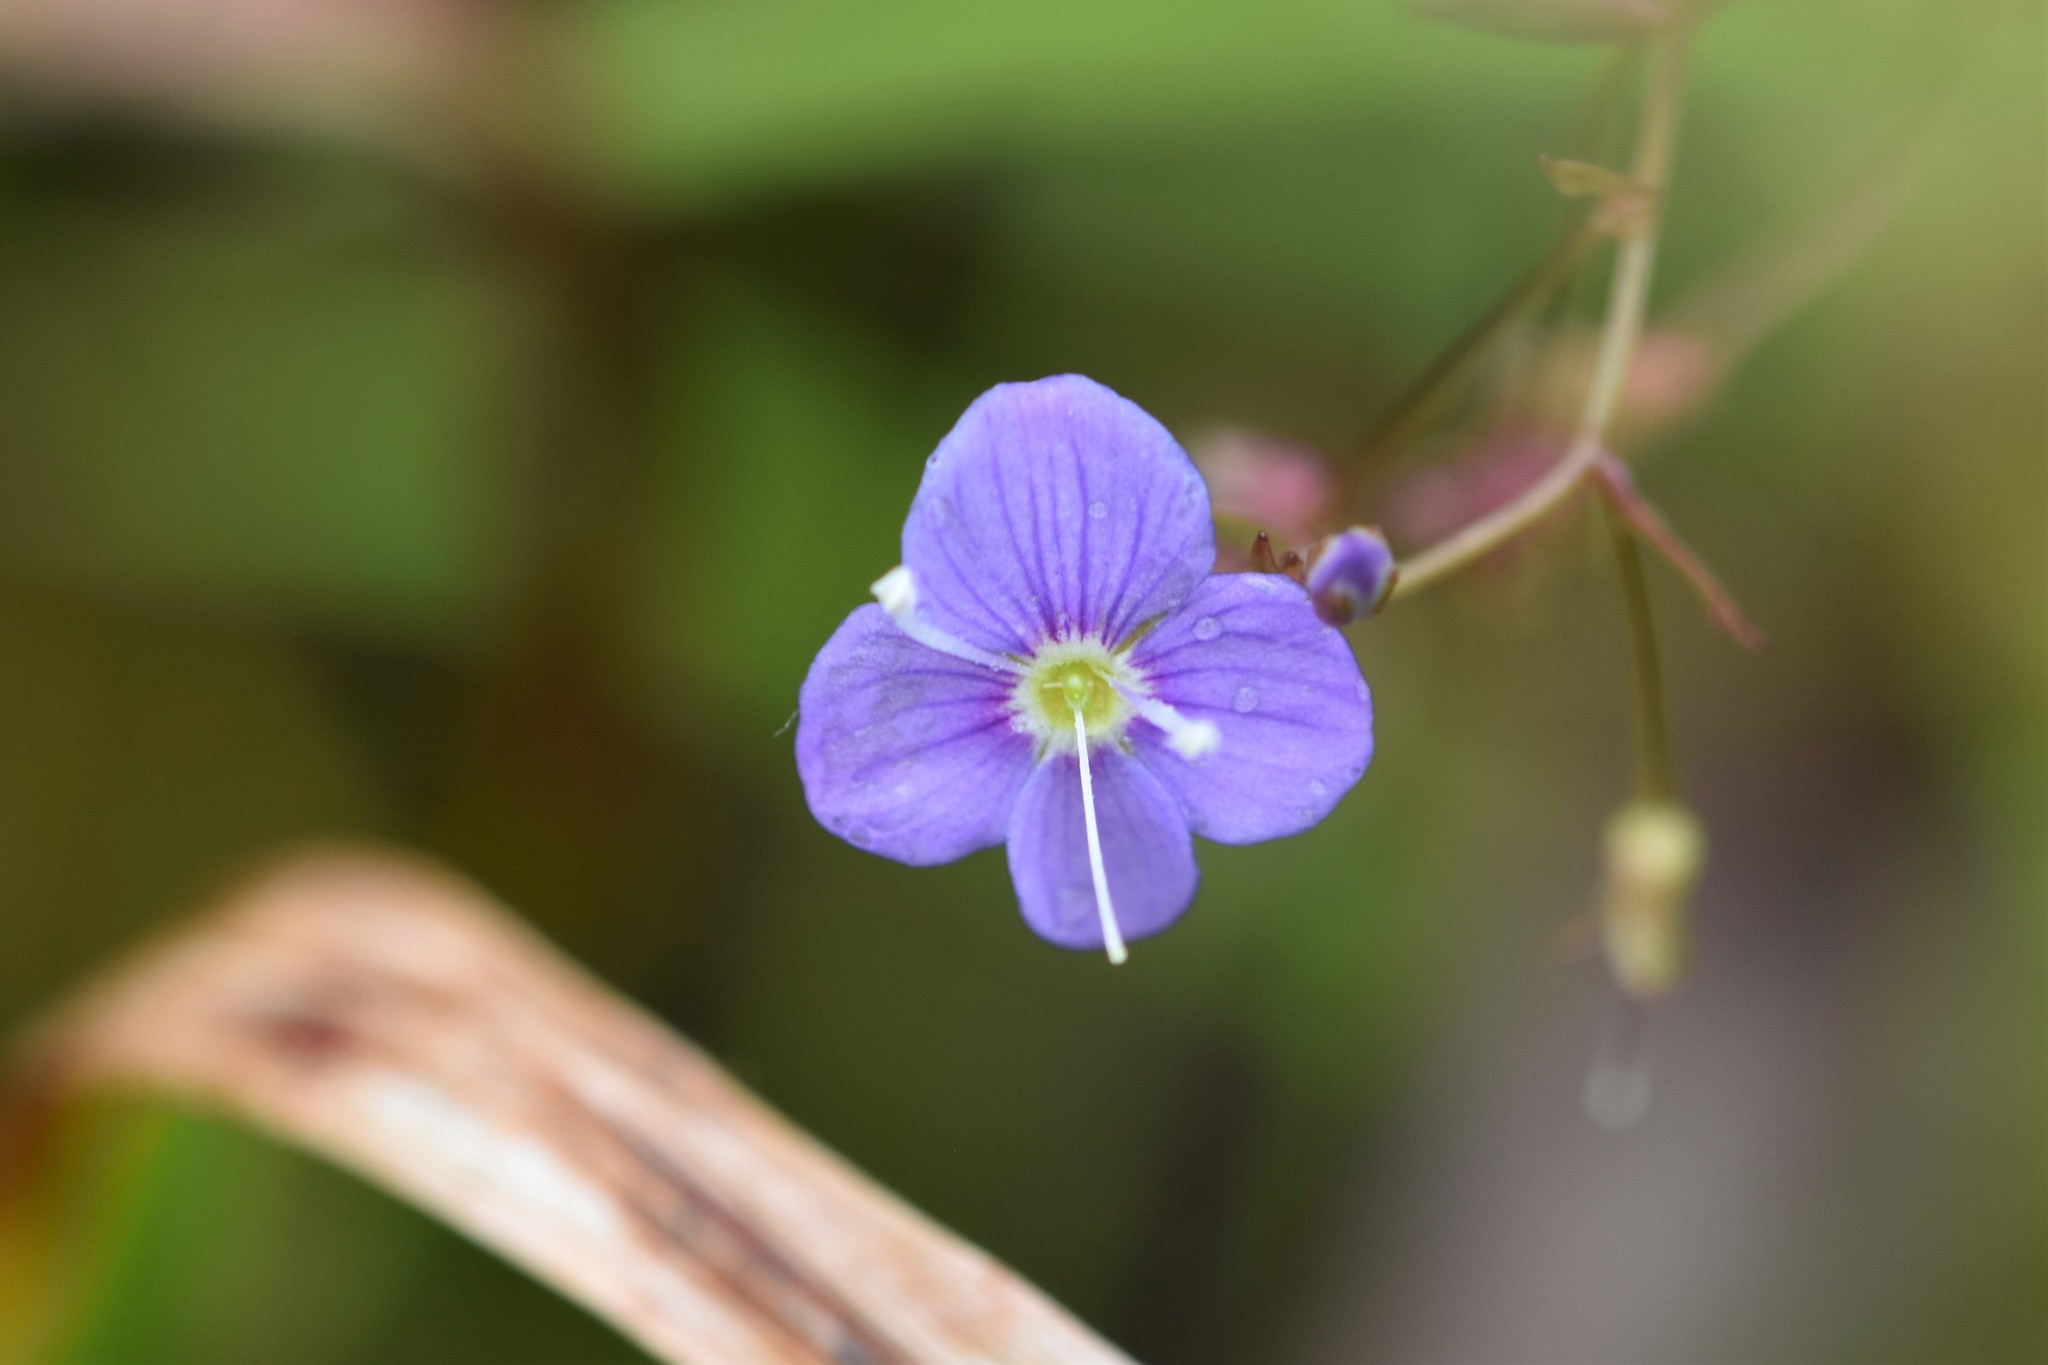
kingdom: Plantae
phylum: Tracheophyta
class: Magnoliopsida
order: Lamiales
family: Plantaginaceae
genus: Veronica
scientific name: Veronica scutellata
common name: Marsh speedwell
